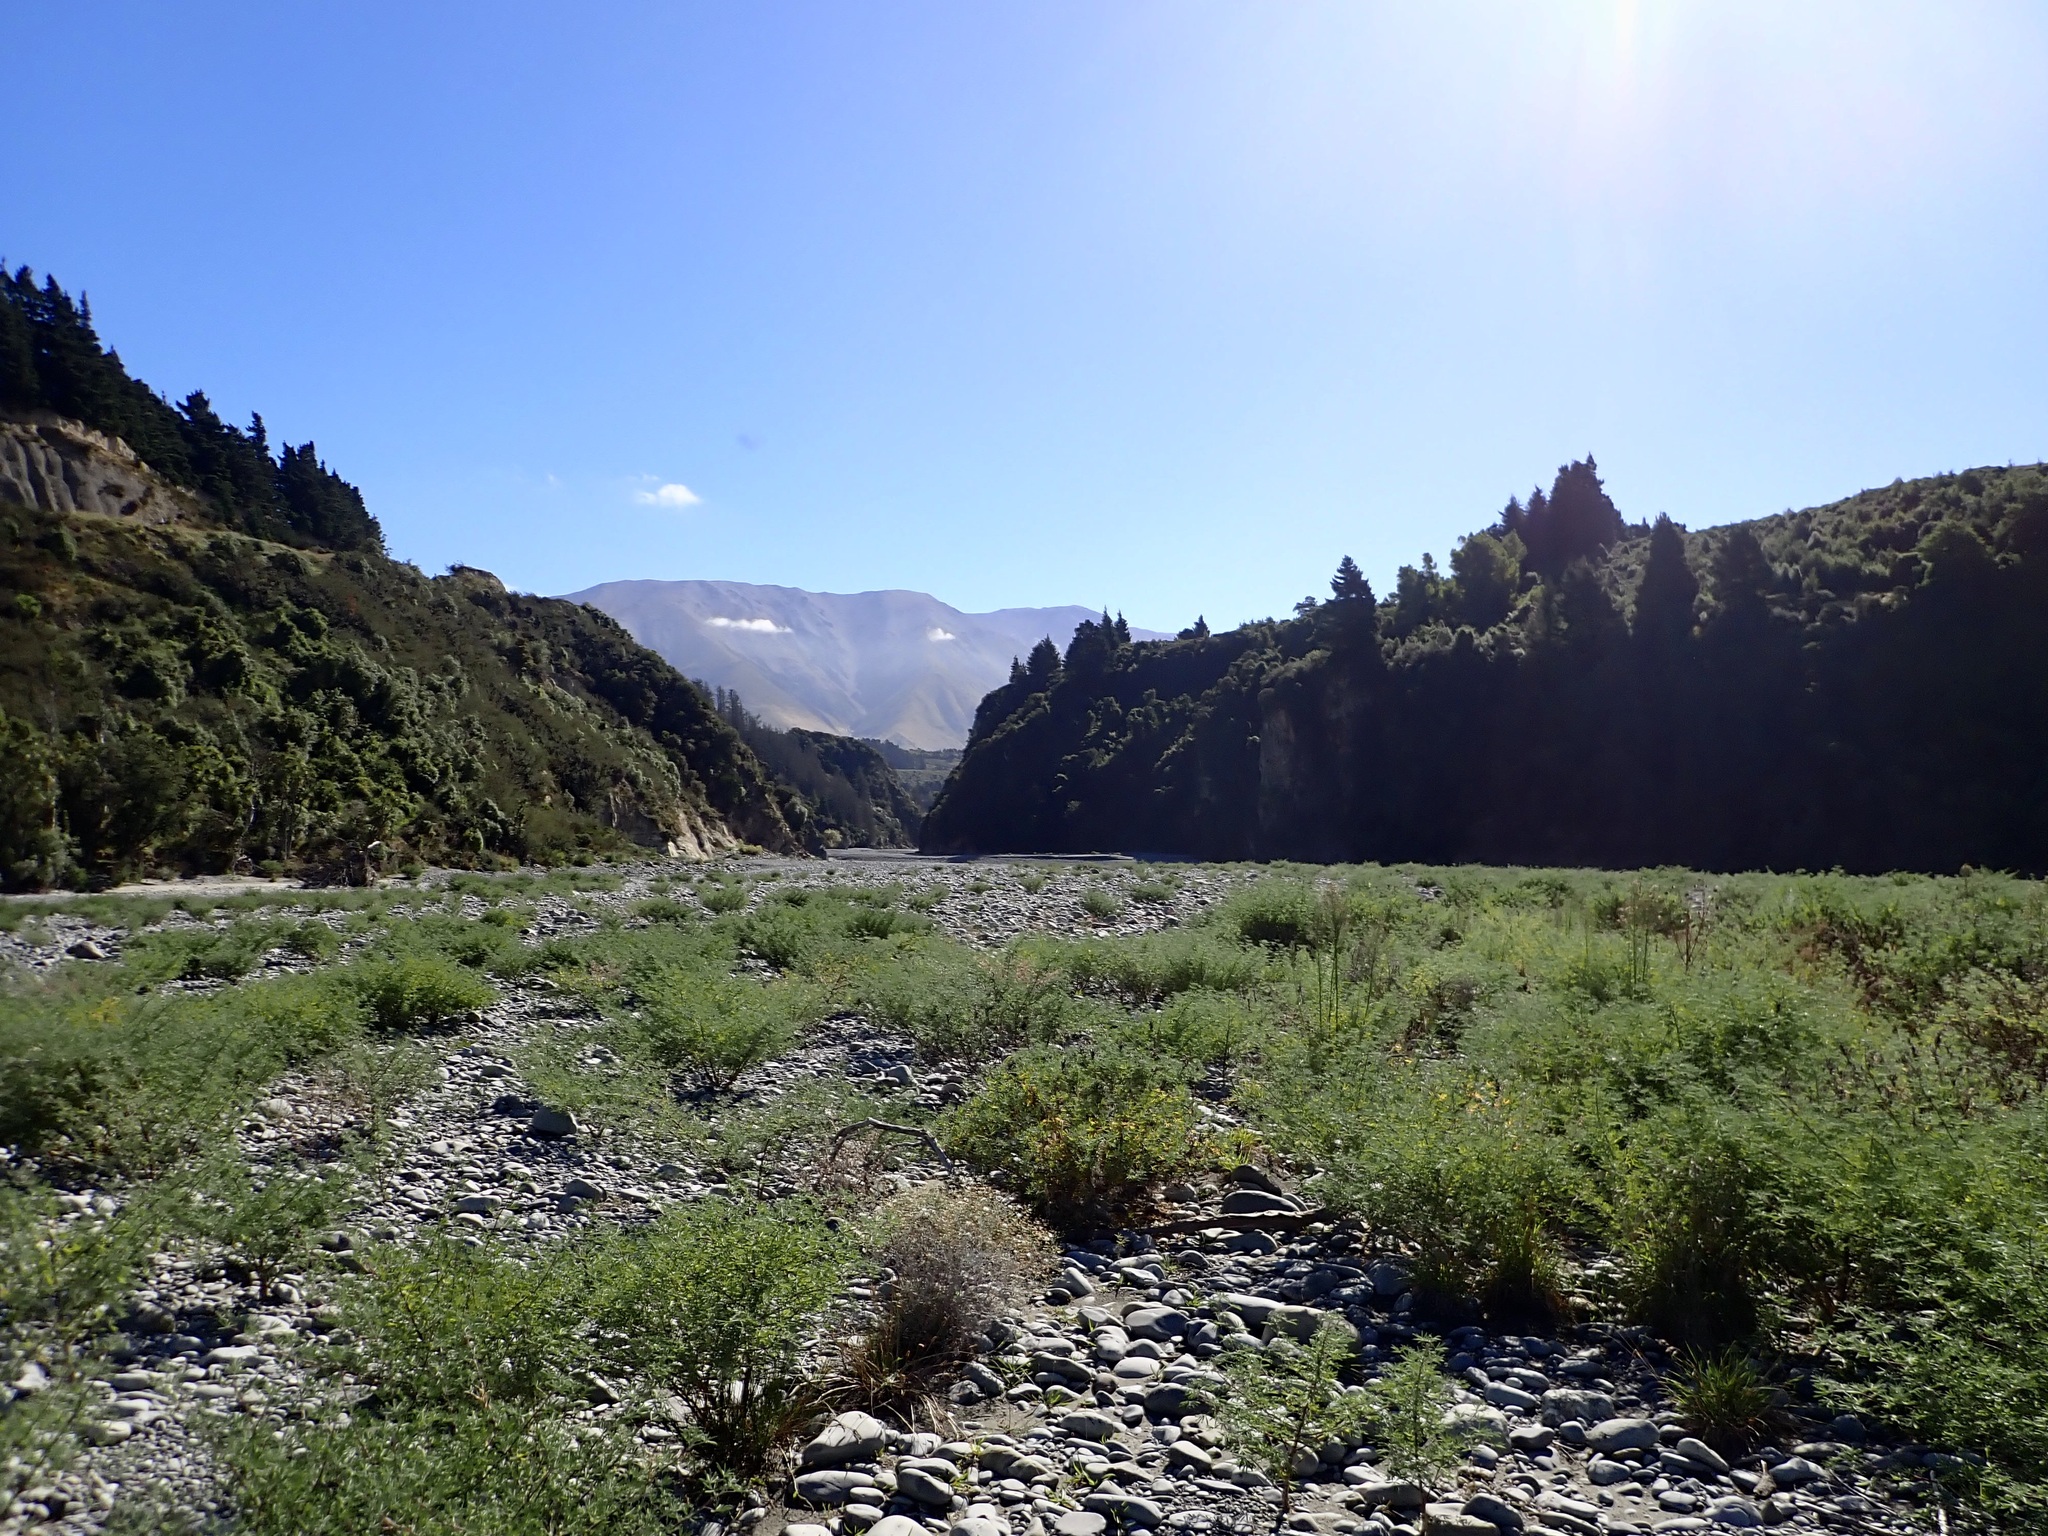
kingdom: Plantae
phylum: Tracheophyta
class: Magnoliopsida
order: Fabales
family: Fabaceae
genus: Lupinus
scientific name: Lupinus arboreus
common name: Yellow bush lupine
